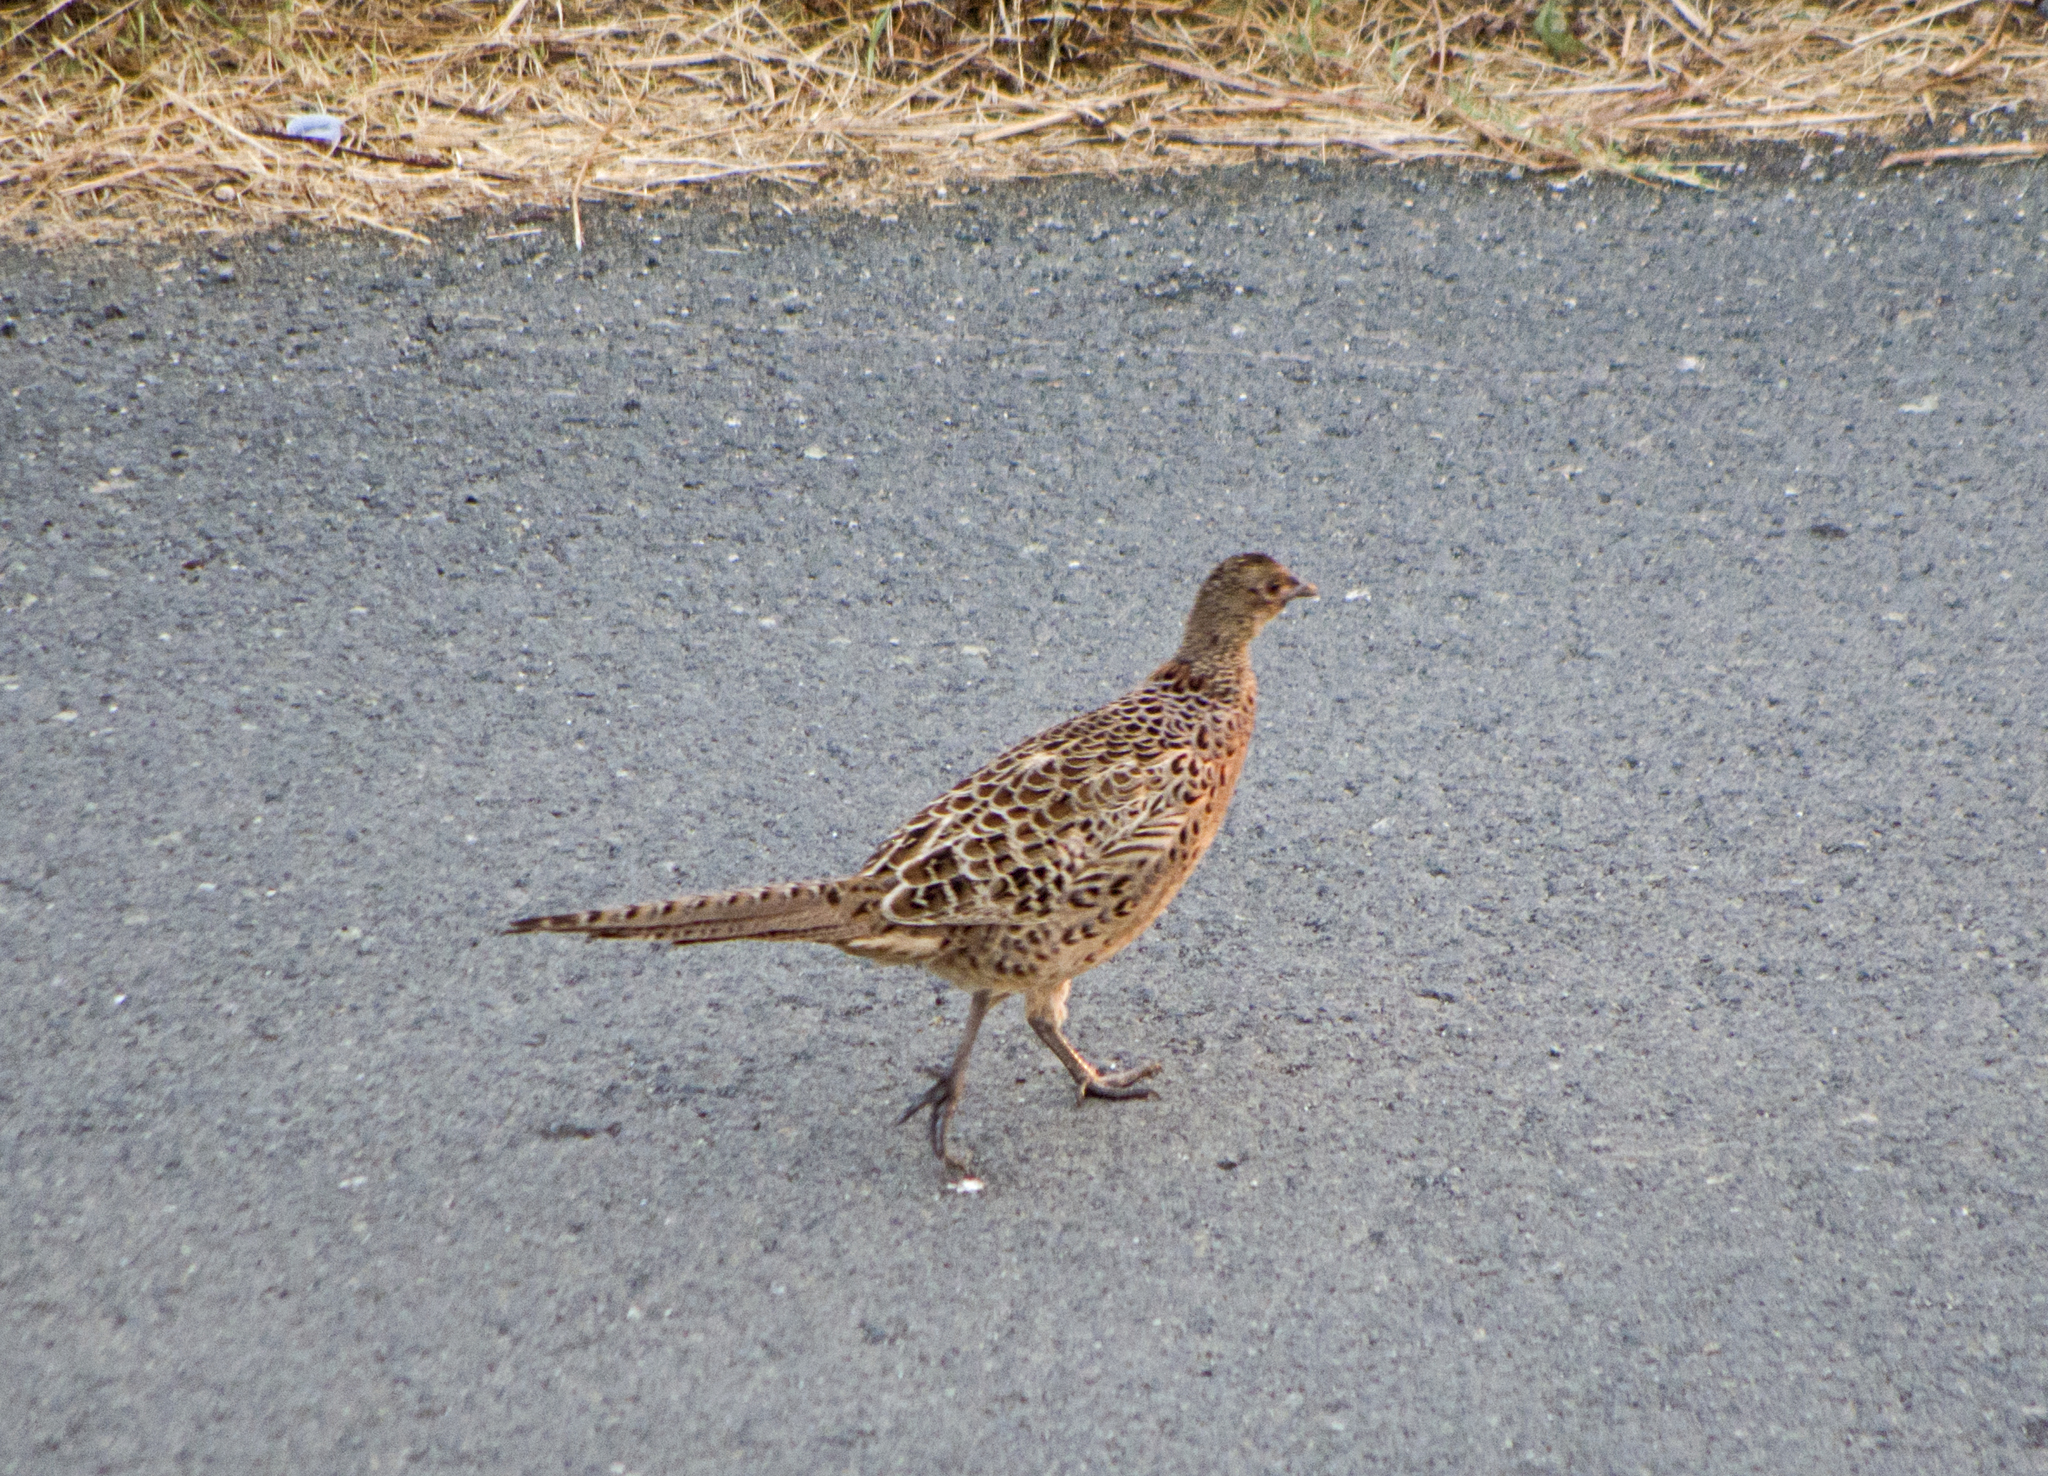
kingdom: Animalia
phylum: Chordata
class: Aves
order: Galliformes
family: Phasianidae
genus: Phasianus
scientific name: Phasianus colchicus
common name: Common pheasant
